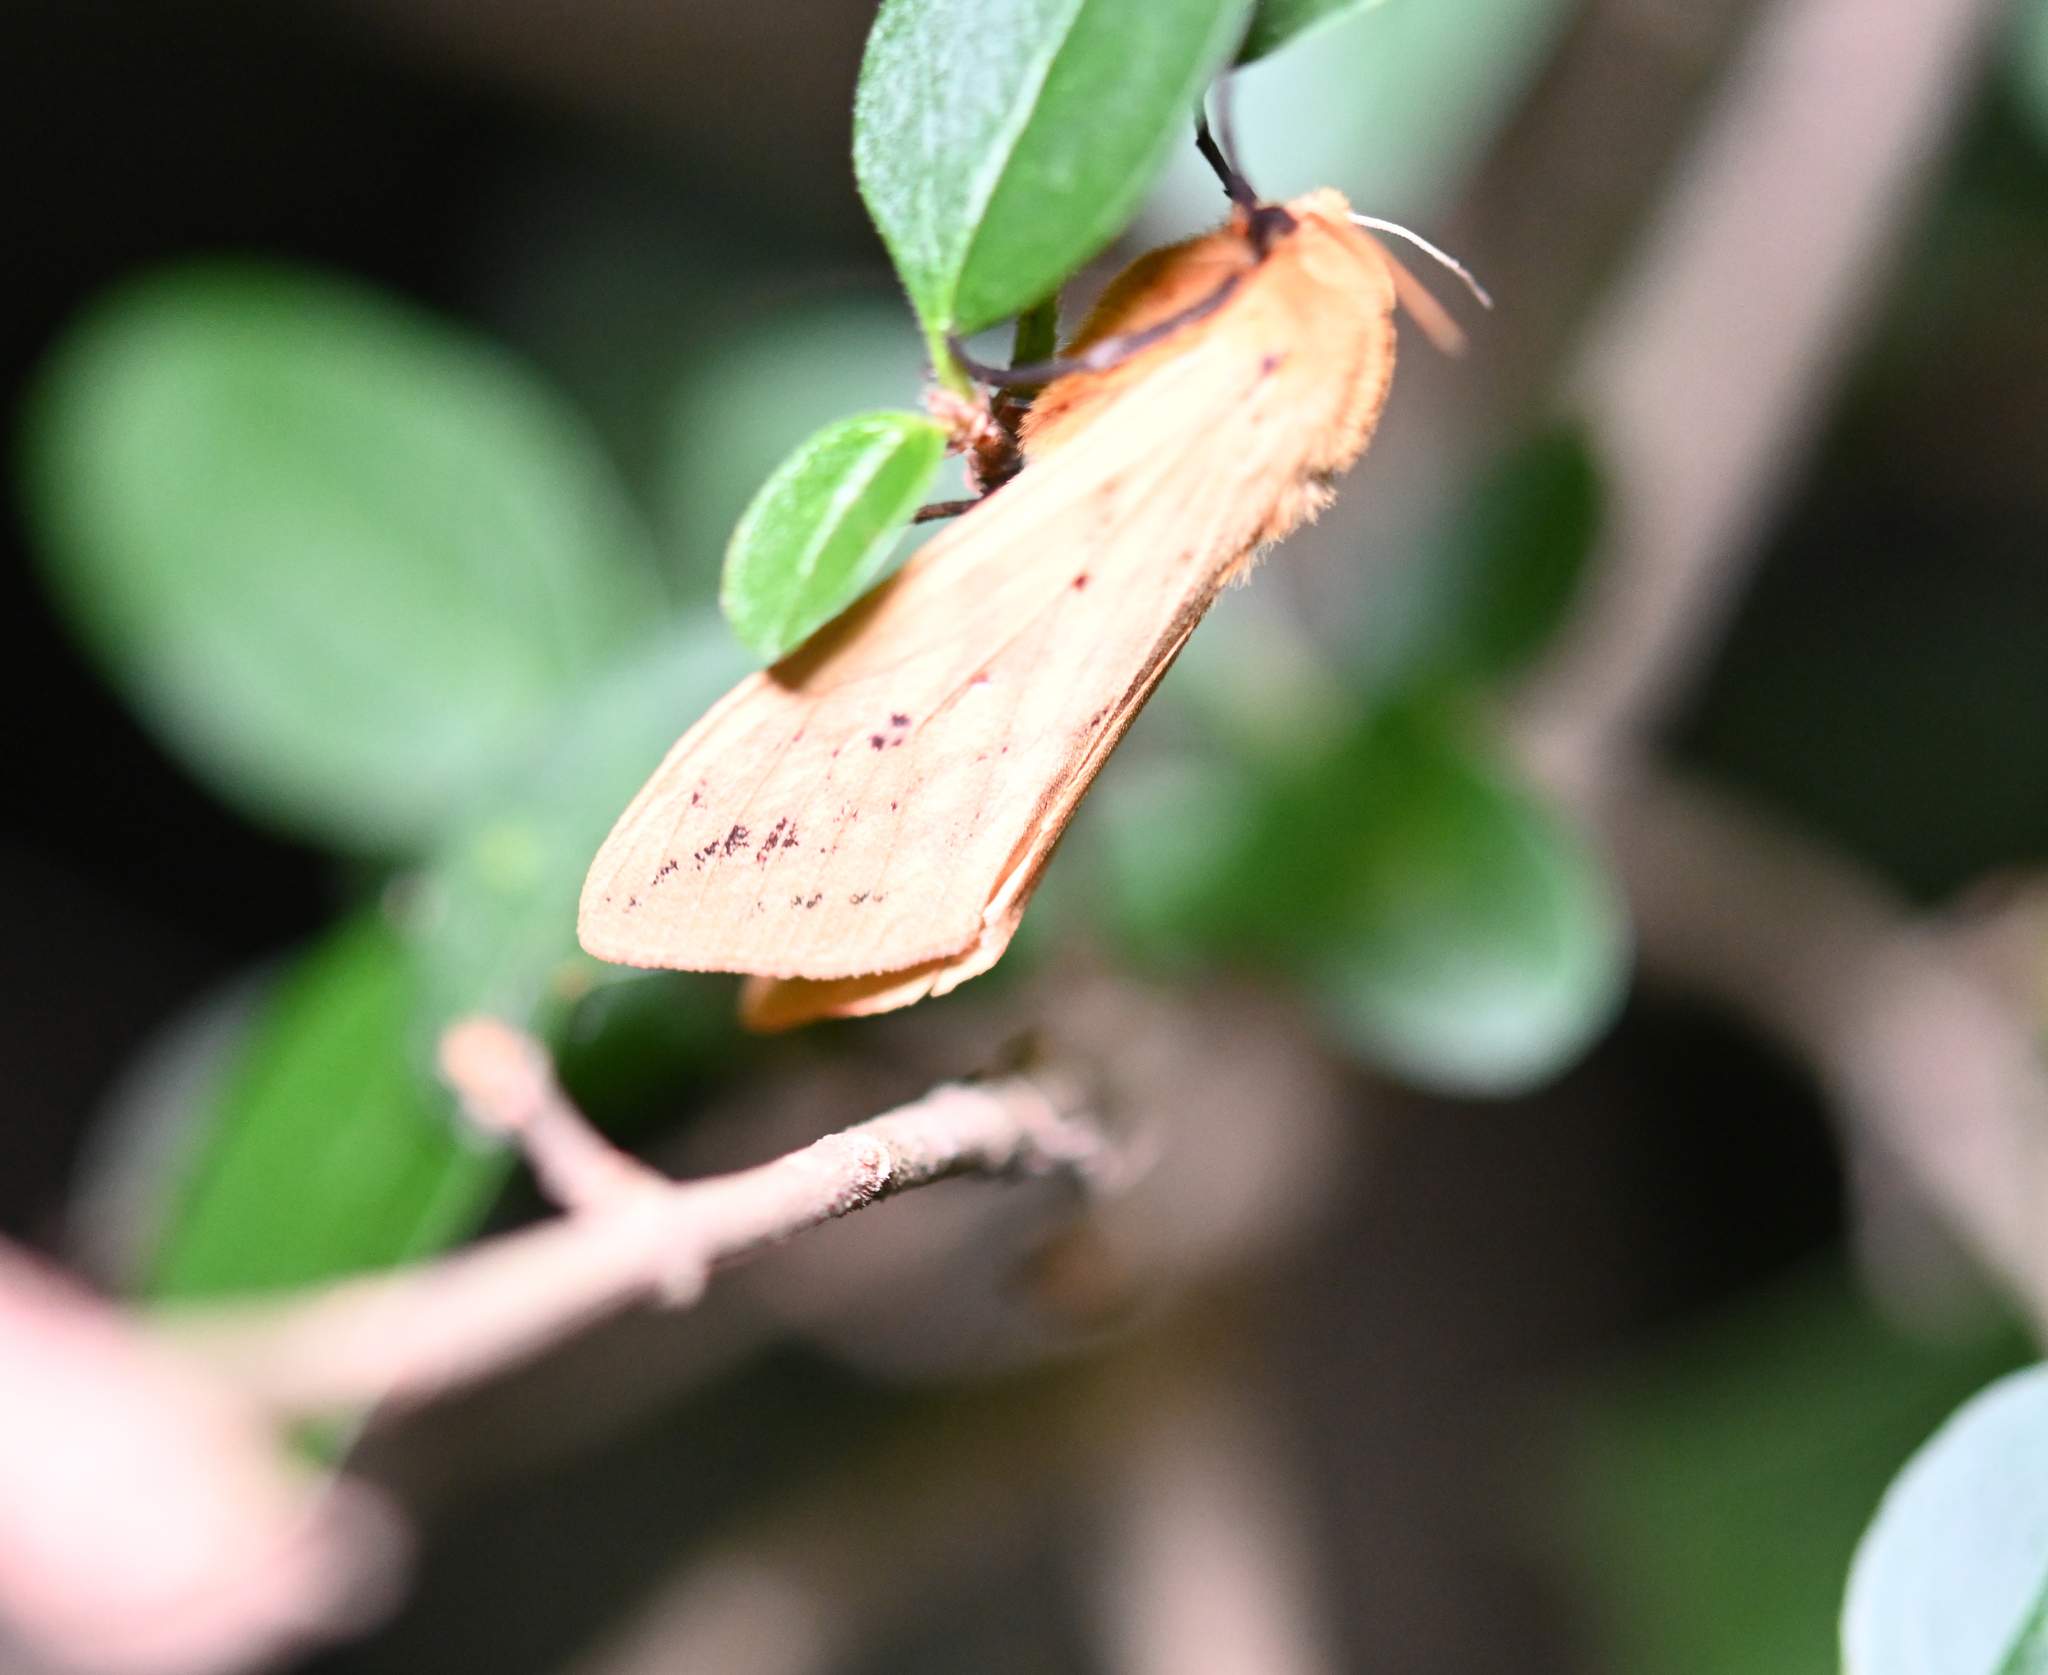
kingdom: Animalia
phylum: Arthropoda
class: Insecta
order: Lepidoptera
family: Erebidae
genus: Pyrrharctia
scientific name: Pyrrharctia isabella
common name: Isabella tiger moth
